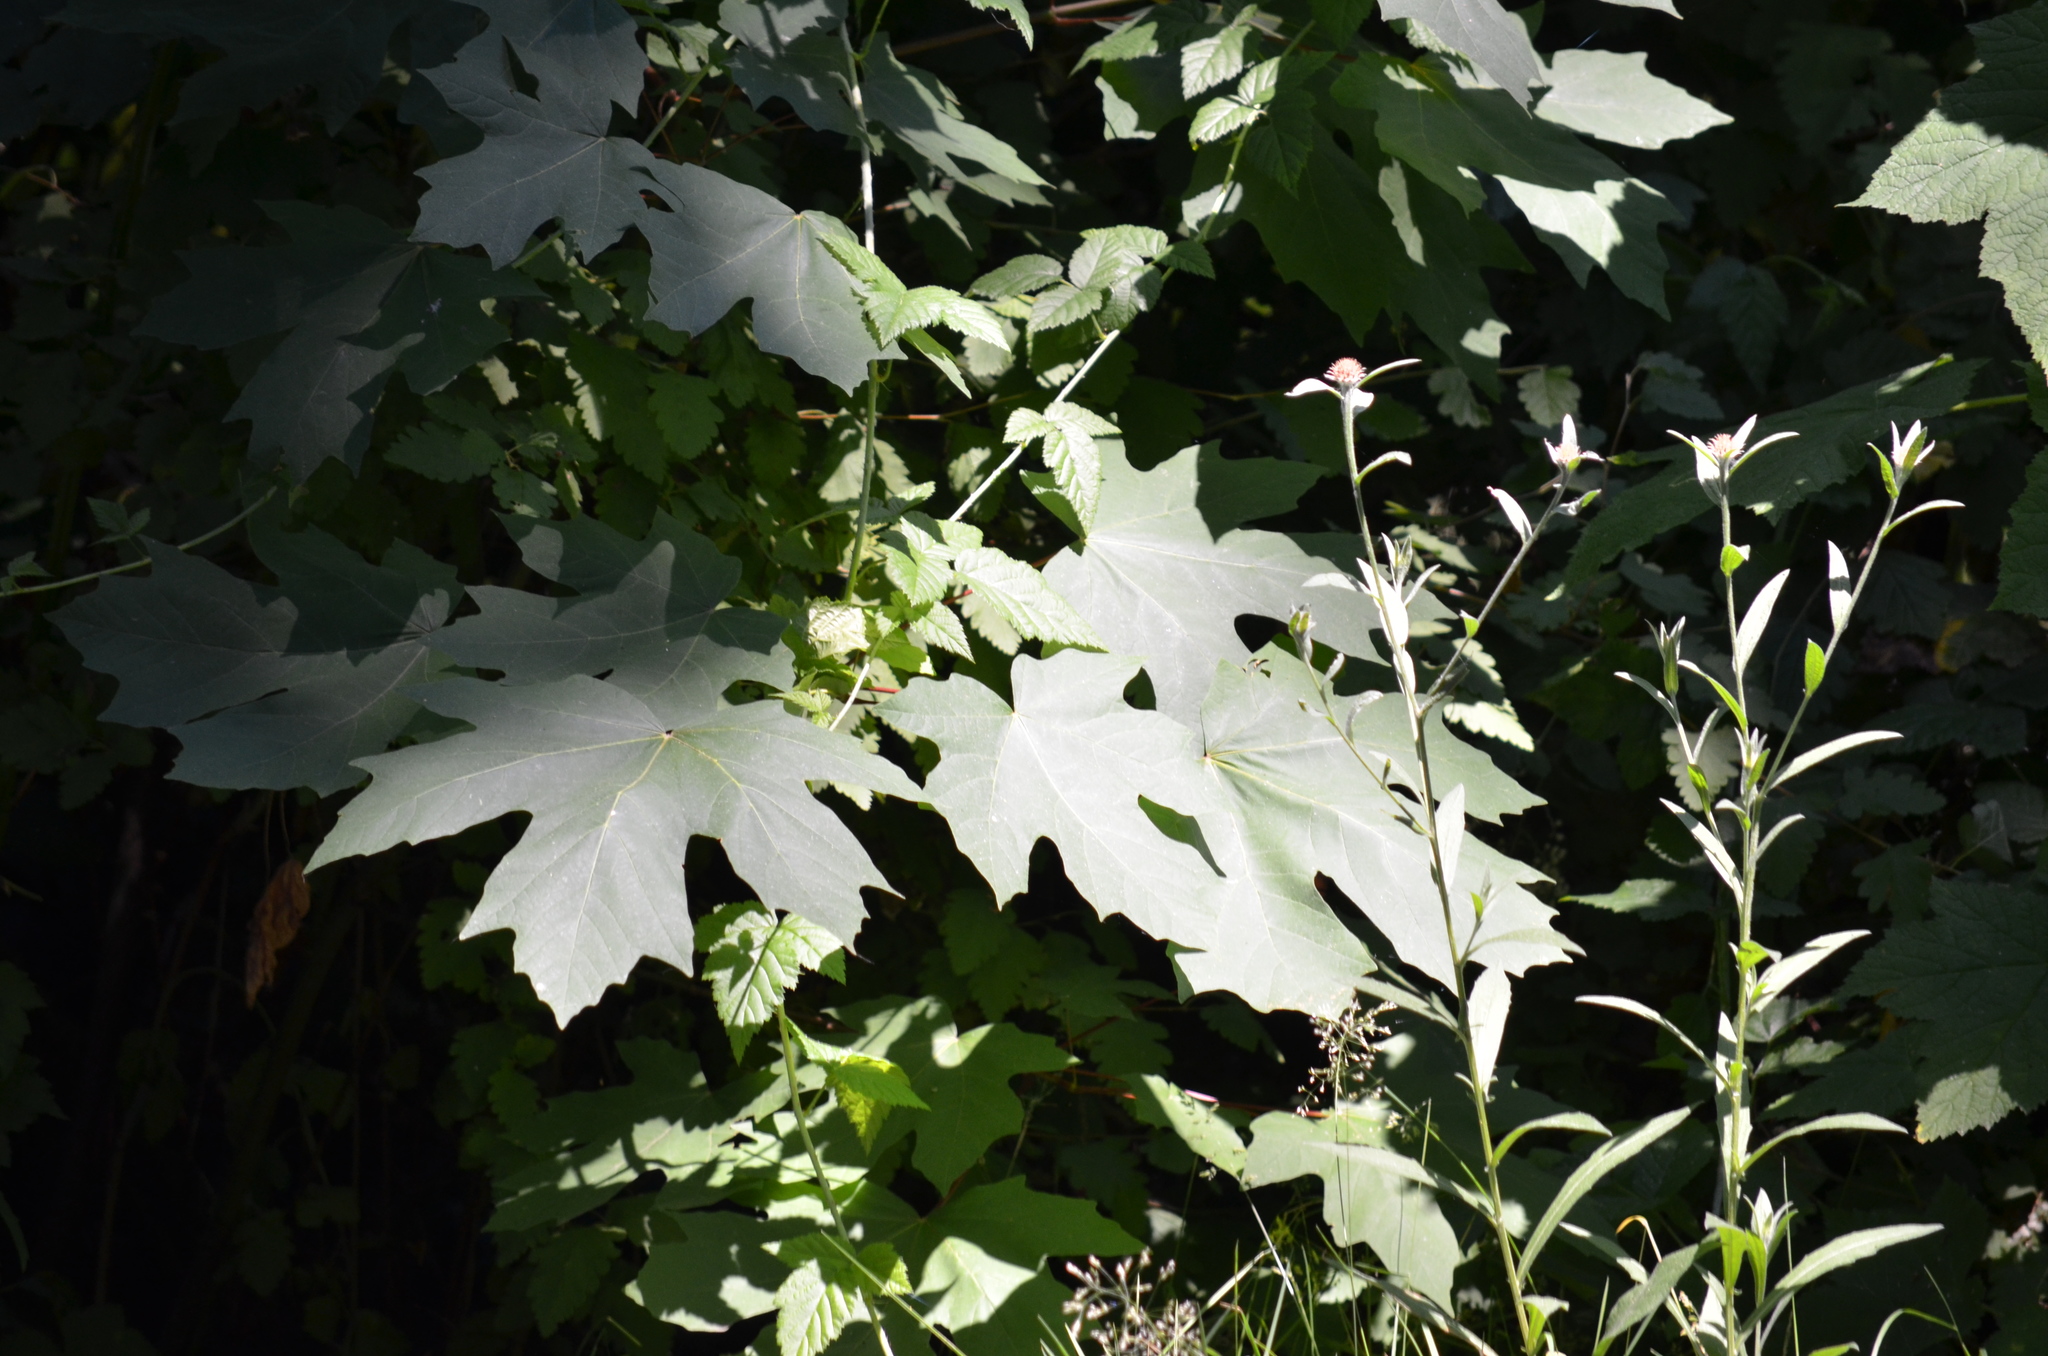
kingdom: Plantae
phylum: Tracheophyta
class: Magnoliopsida
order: Sapindales
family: Sapindaceae
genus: Acer
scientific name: Acer macrophyllum
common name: Oregon maple
